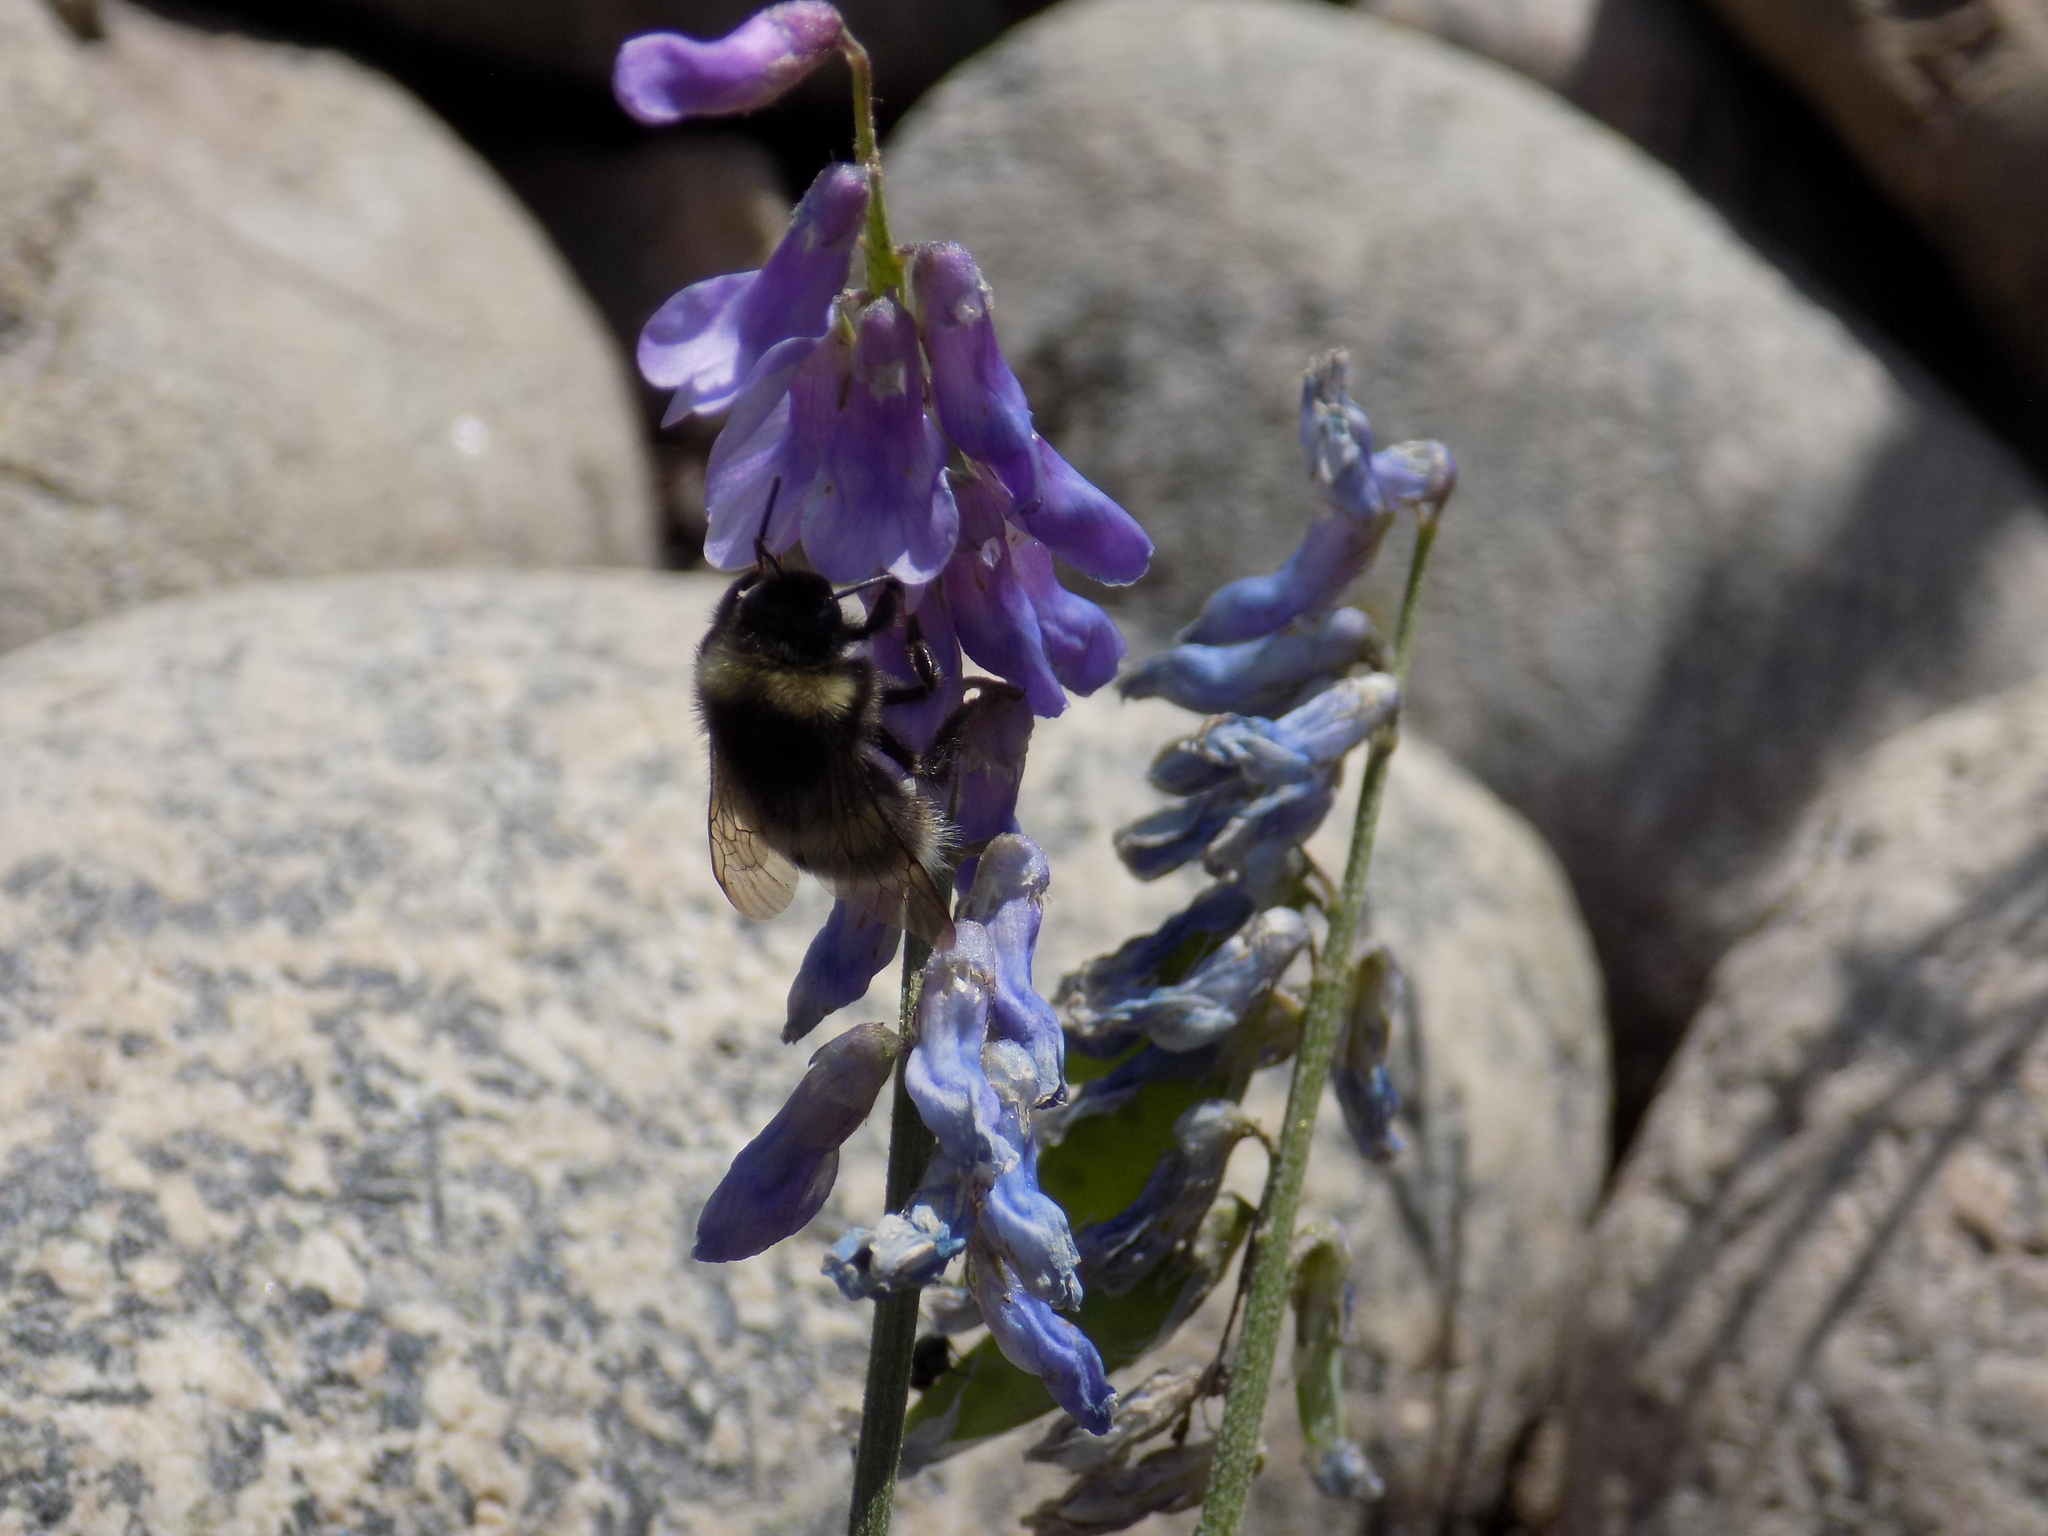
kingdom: Animalia
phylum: Arthropoda
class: Insecta
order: Hymenoptera
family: Apidae
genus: Bombus
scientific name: Bombus
